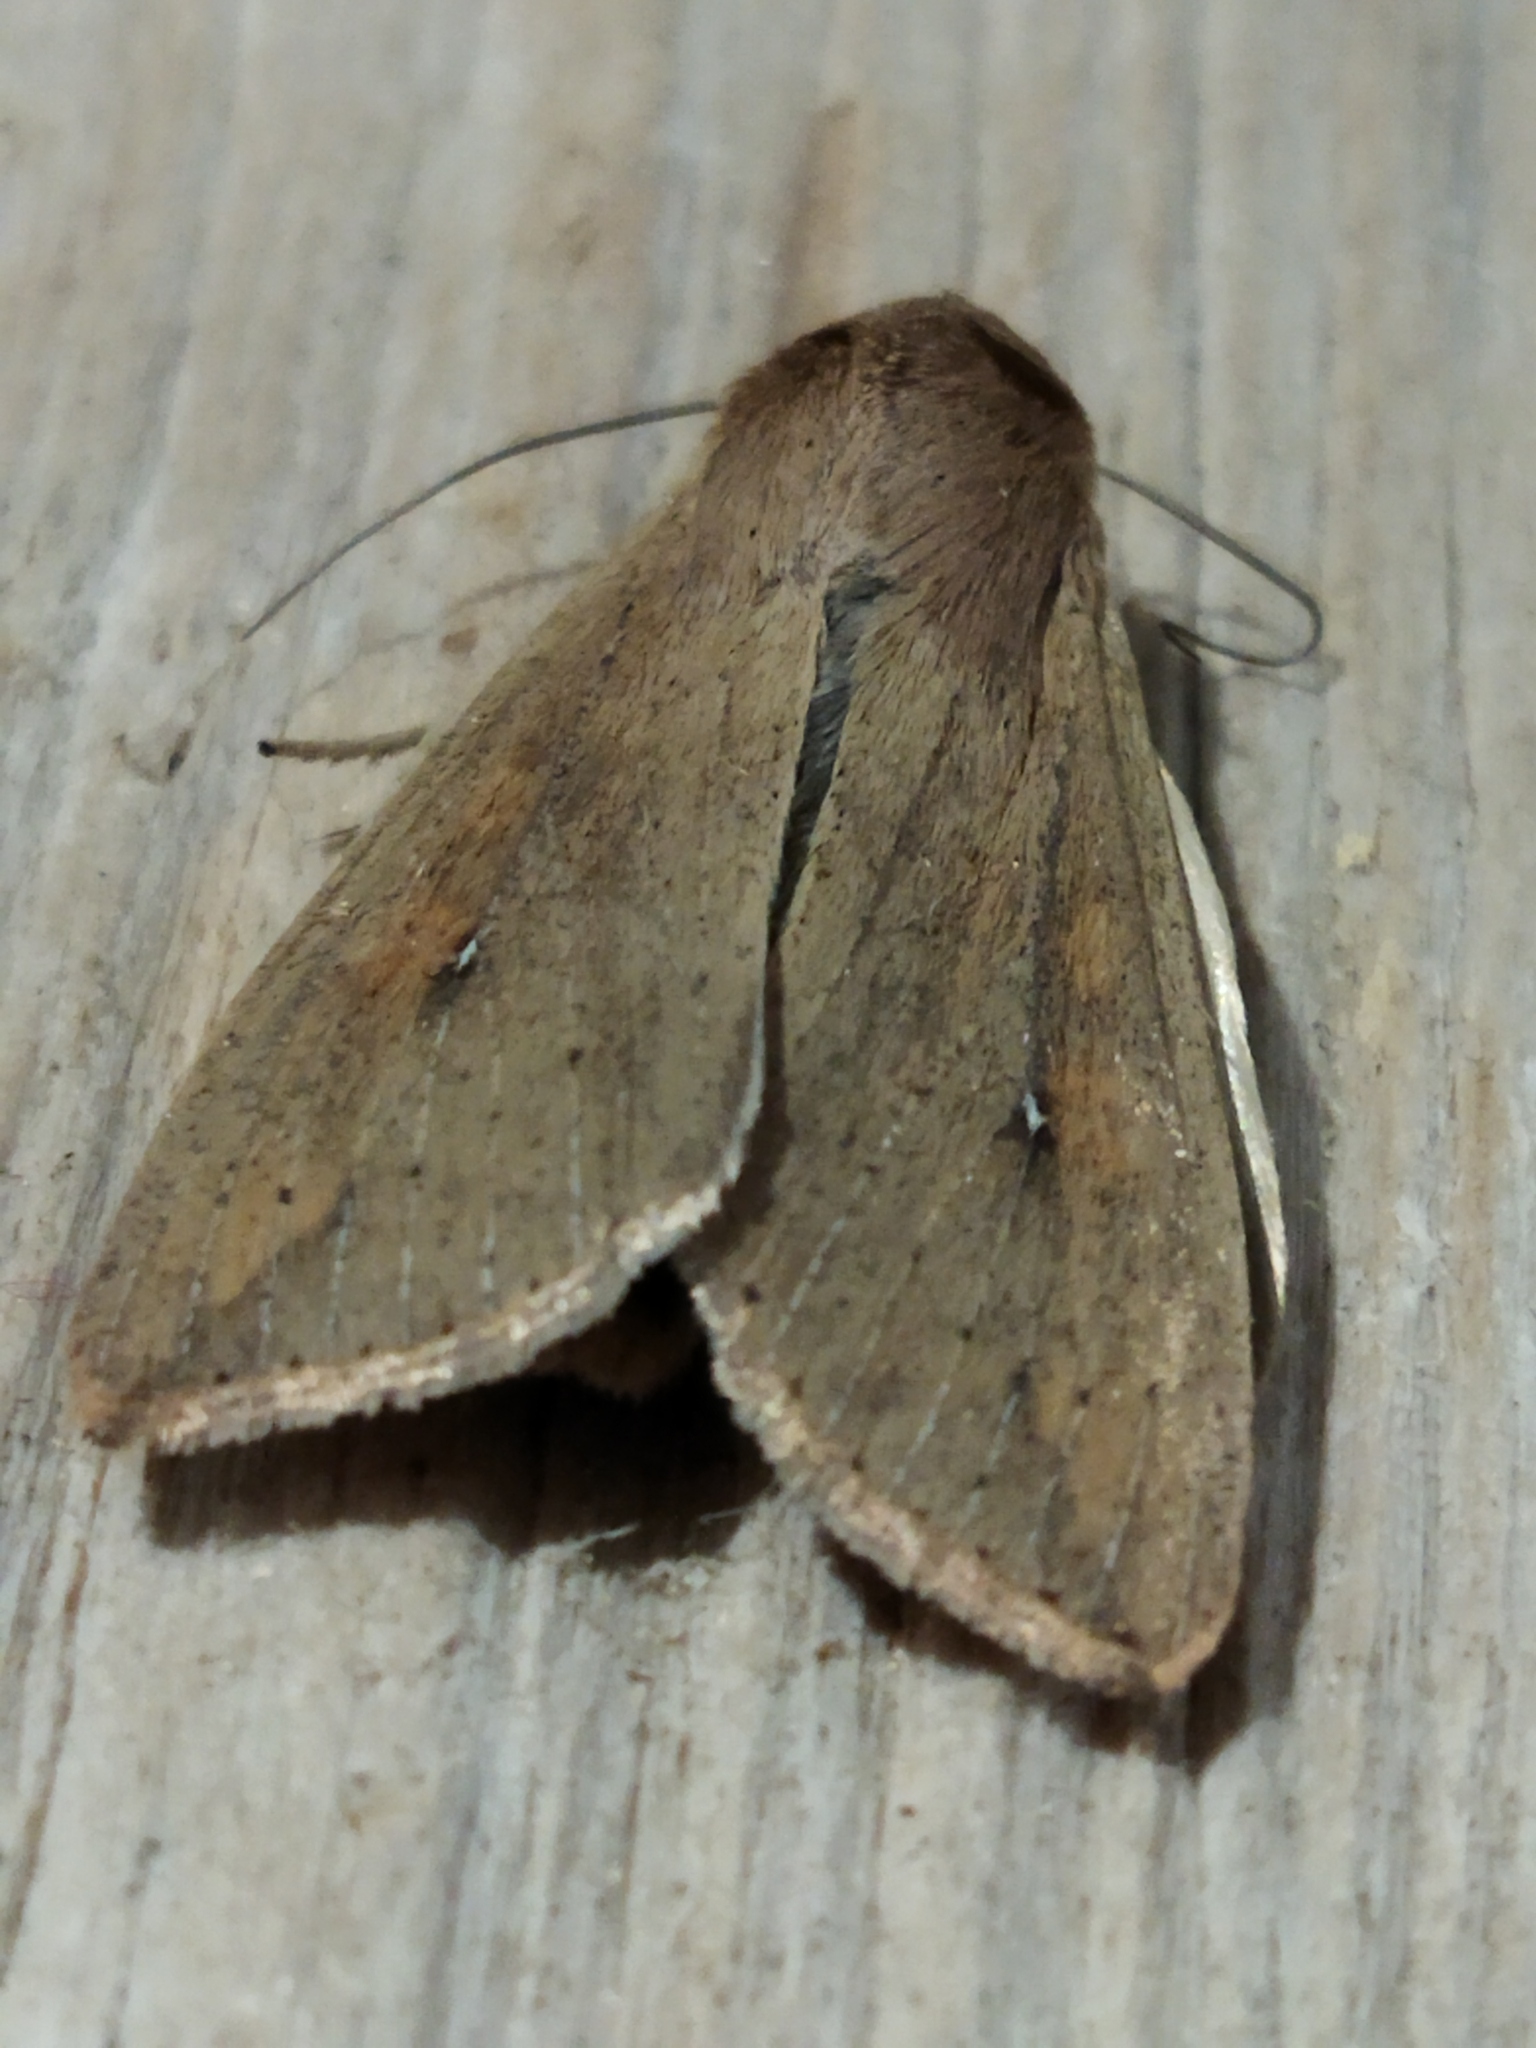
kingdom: Animalia
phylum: Arthropoda
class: Insecta
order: Lepidoptera
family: Noctuidae
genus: Mythimna
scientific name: Mythimna unipuncta
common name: White-speck
